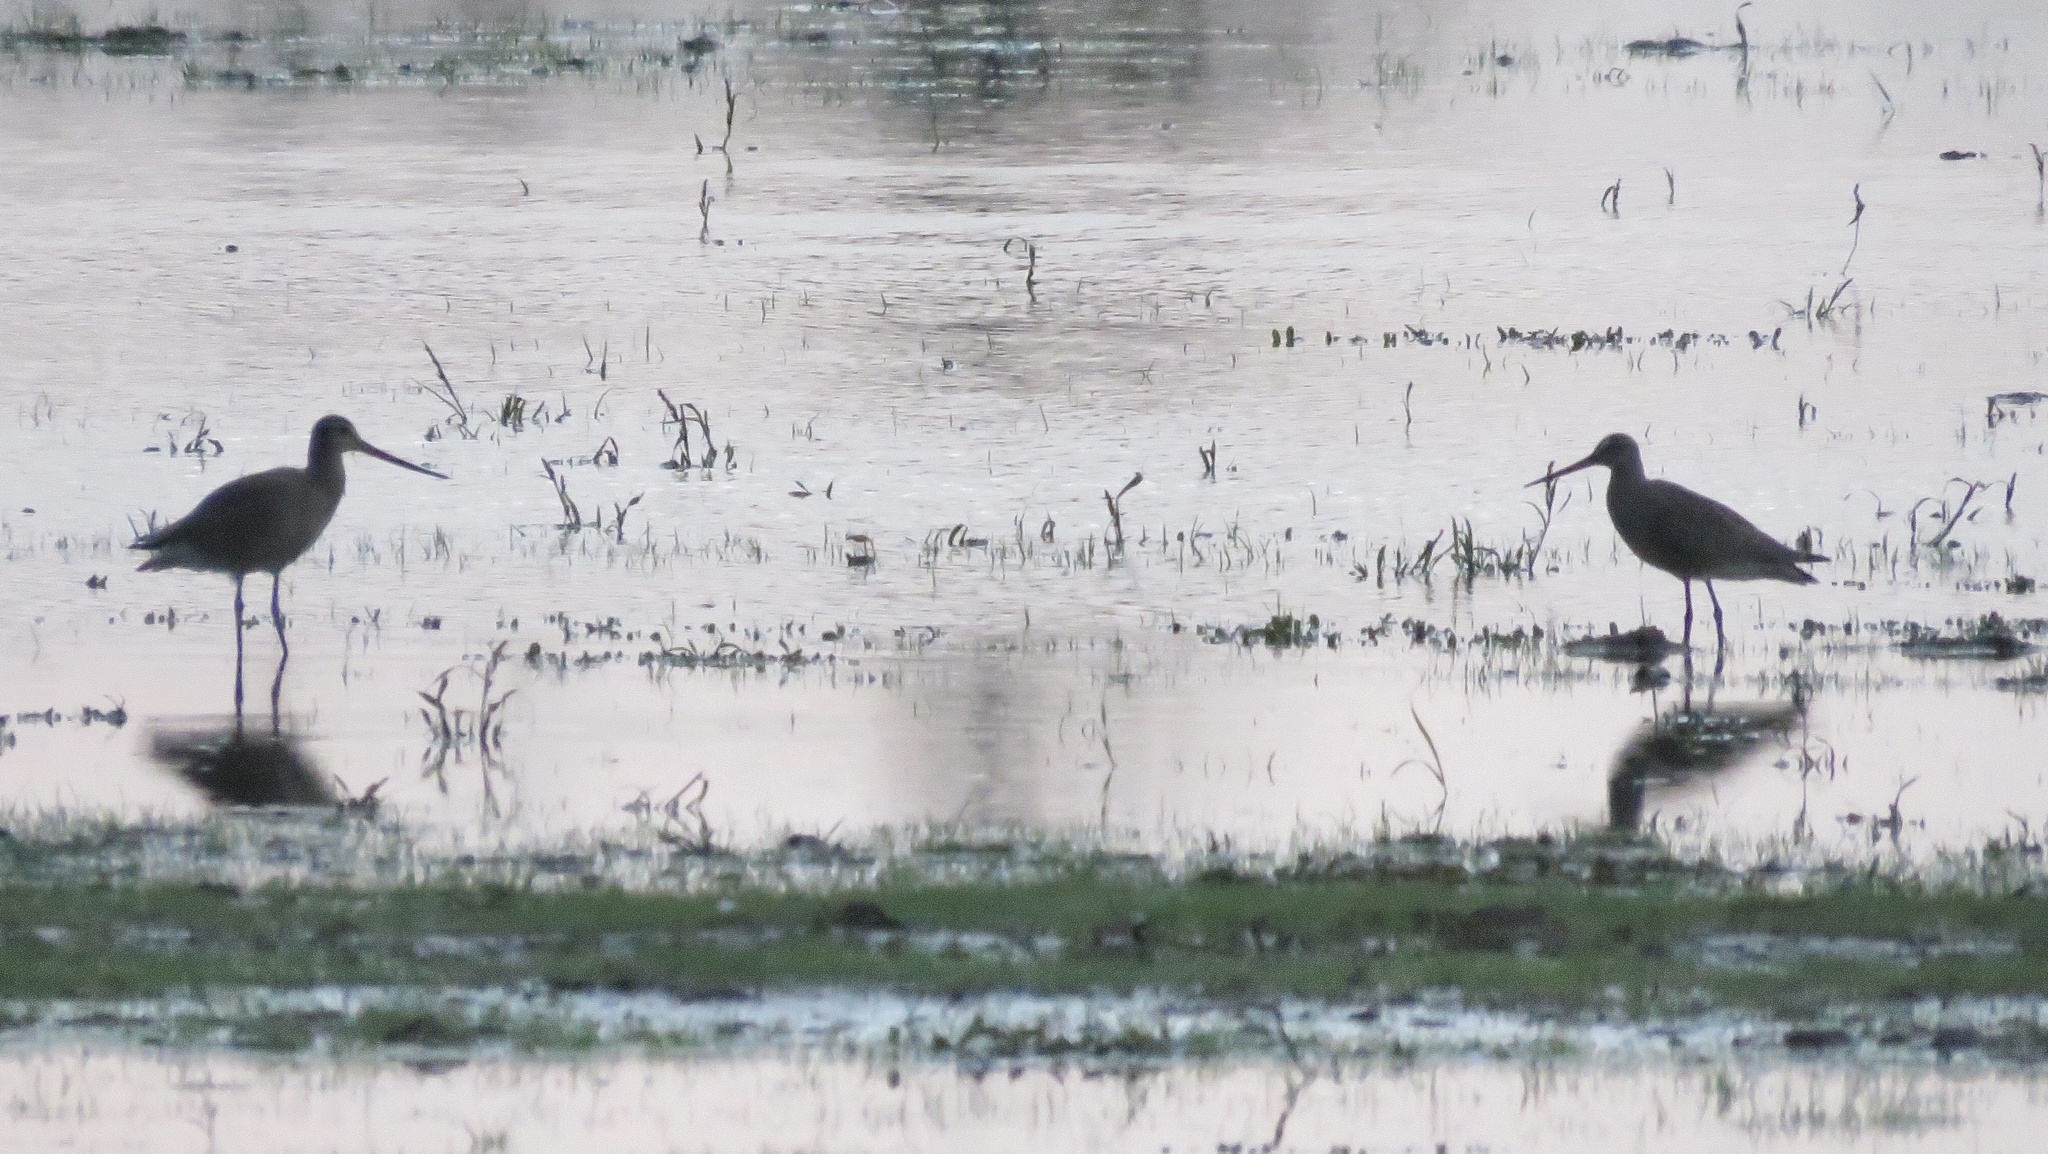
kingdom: Animalia
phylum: Chordata
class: Aves
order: Charadriiformes
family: Scolopacidae
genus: Limosa
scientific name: Limosa haemastica
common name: Hudsonian godwit
